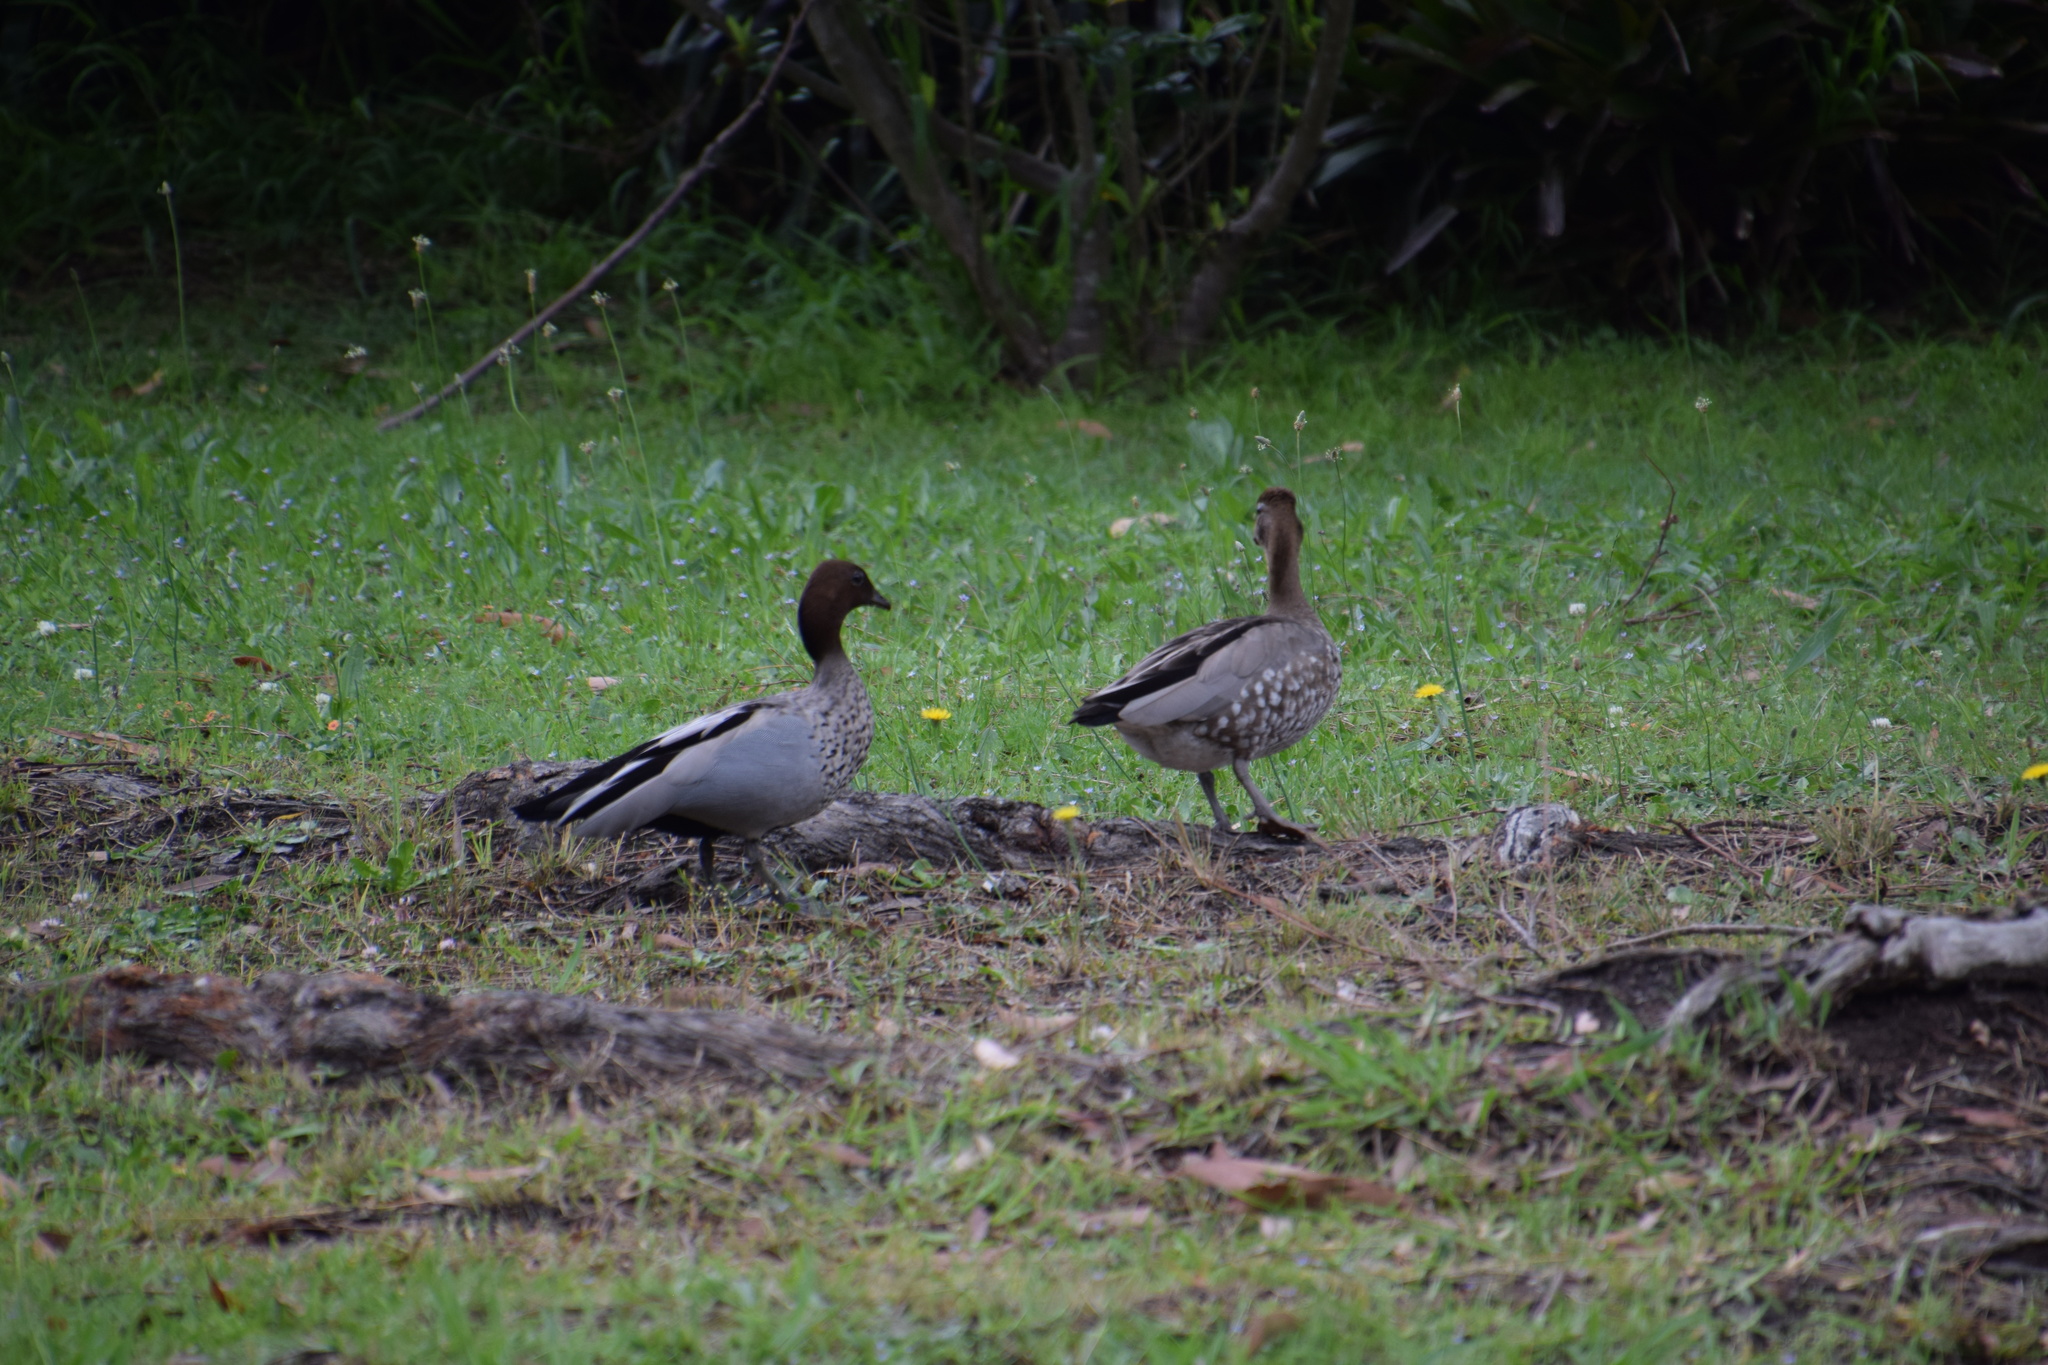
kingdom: Animalia
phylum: Chordata
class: Aves
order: Anseriformes
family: Anatidae
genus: Chenonetta
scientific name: Chenonetta jubata
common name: Maned duck
